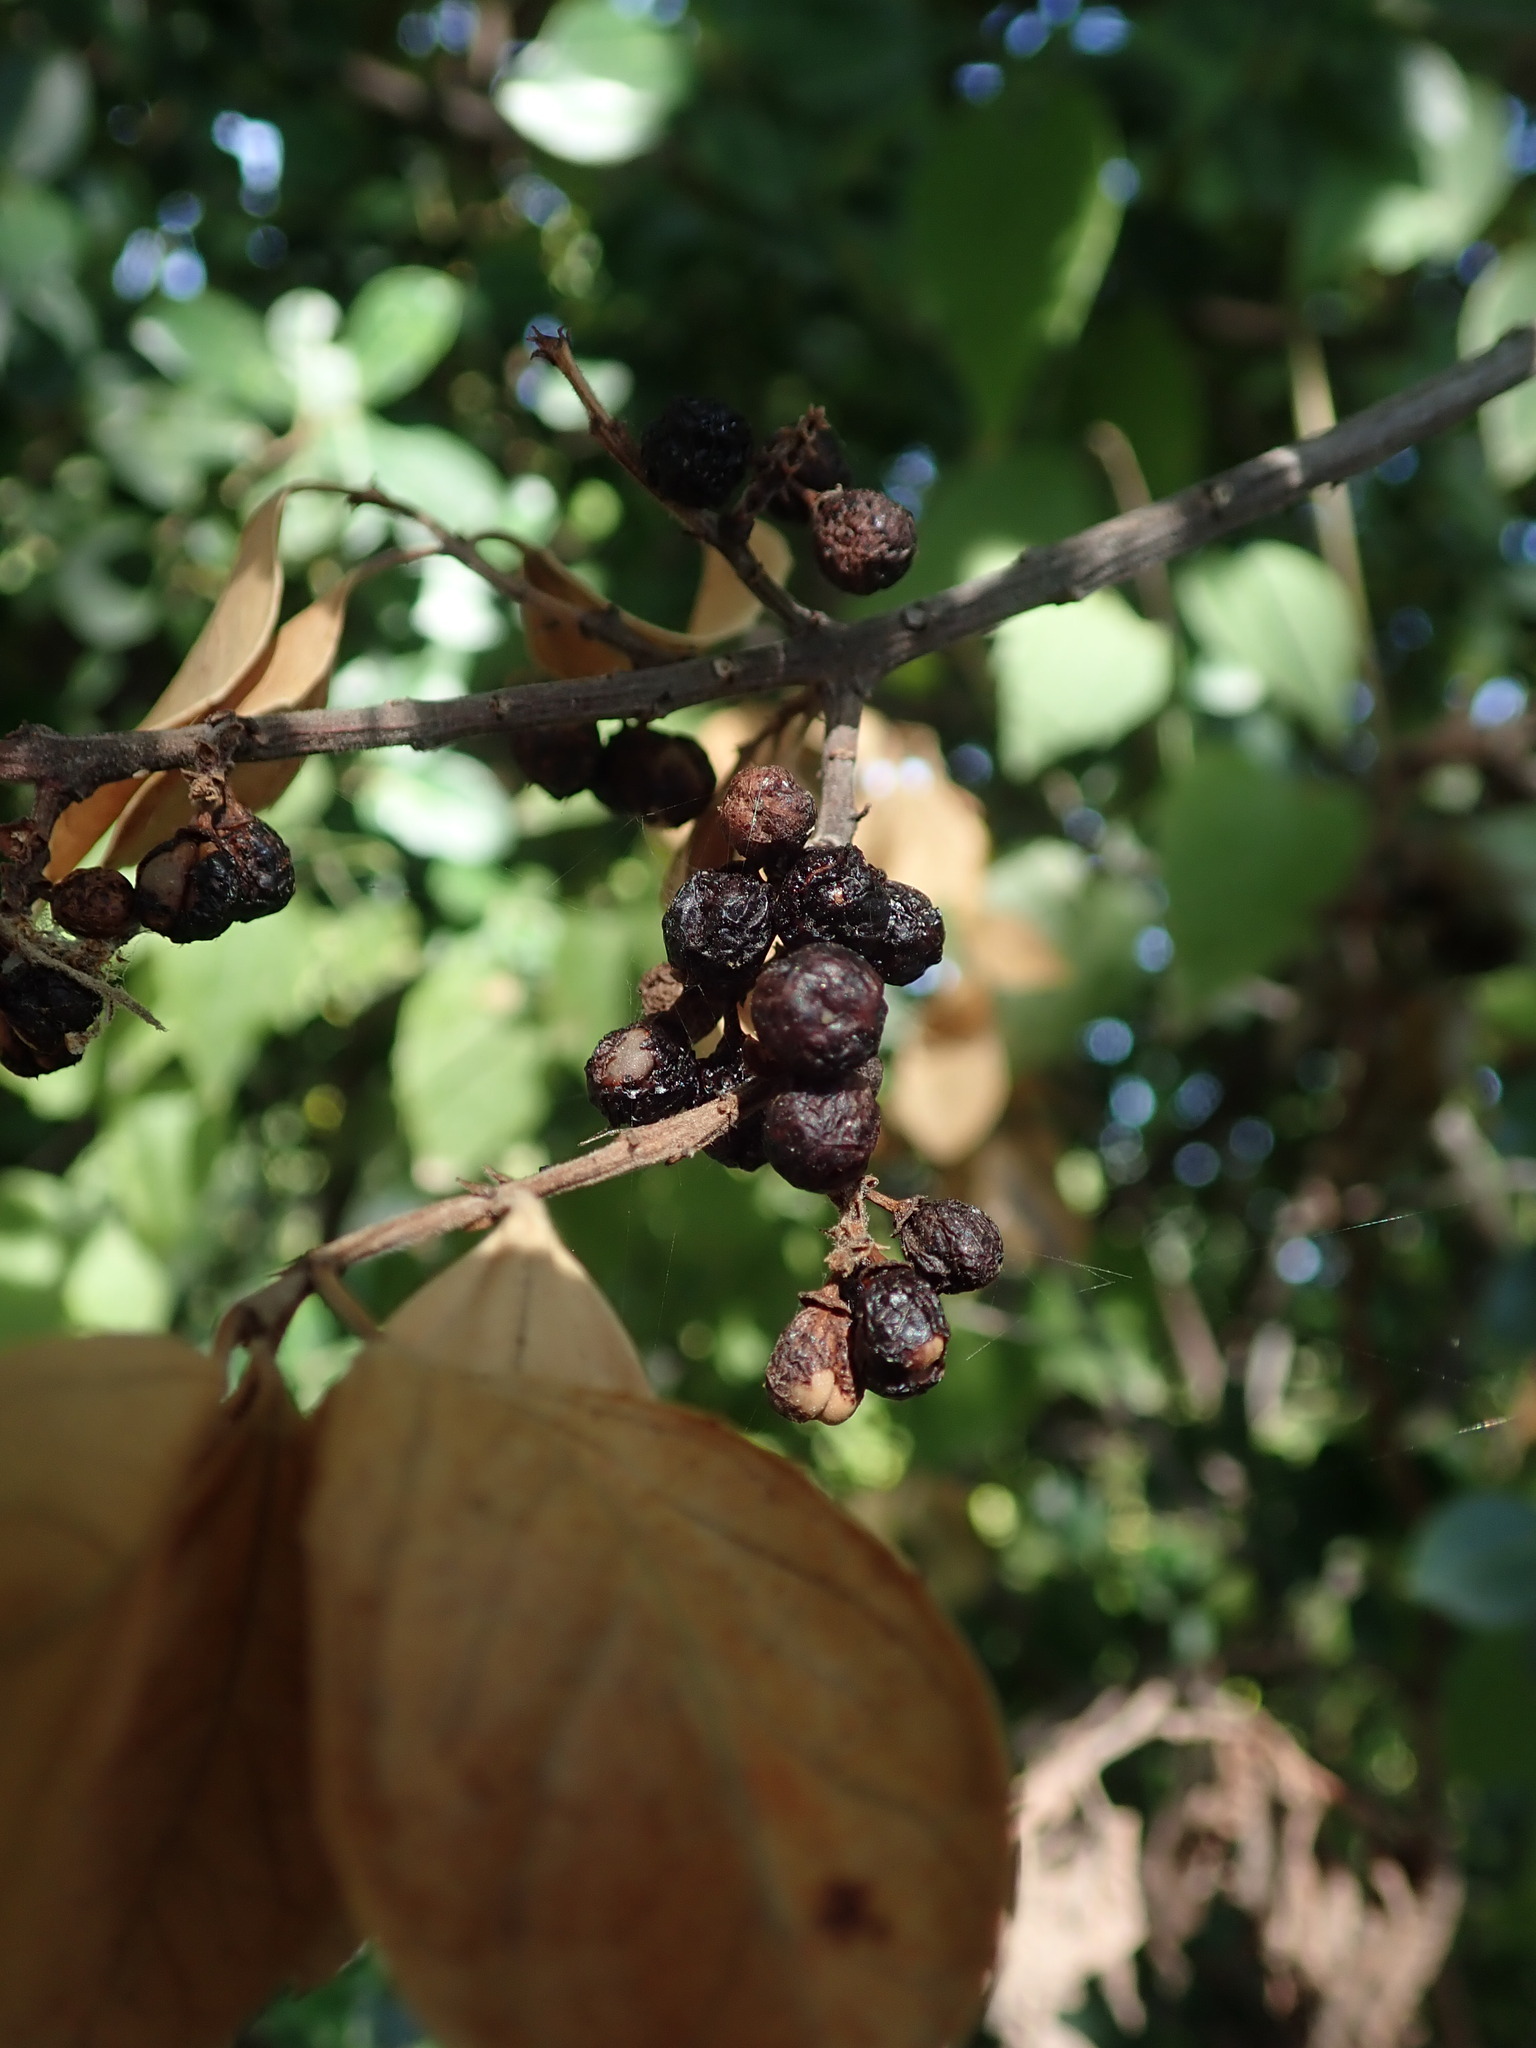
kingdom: Plantae
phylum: Tracheophyta
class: Magnoliopsida
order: Rosales
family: Rhamnaceae
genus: Rhamnus
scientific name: Rhamnus alaternus
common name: Mediterranean buckthorn
